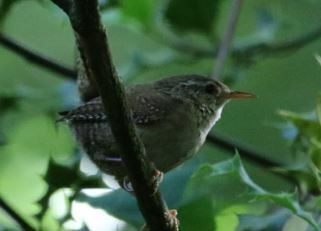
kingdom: Animalia
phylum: Chordata
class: Aves
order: Passeriformes
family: Troglodytidae
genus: Troglodytes
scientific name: Troglodytes troglodytes
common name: Eurasian wren
